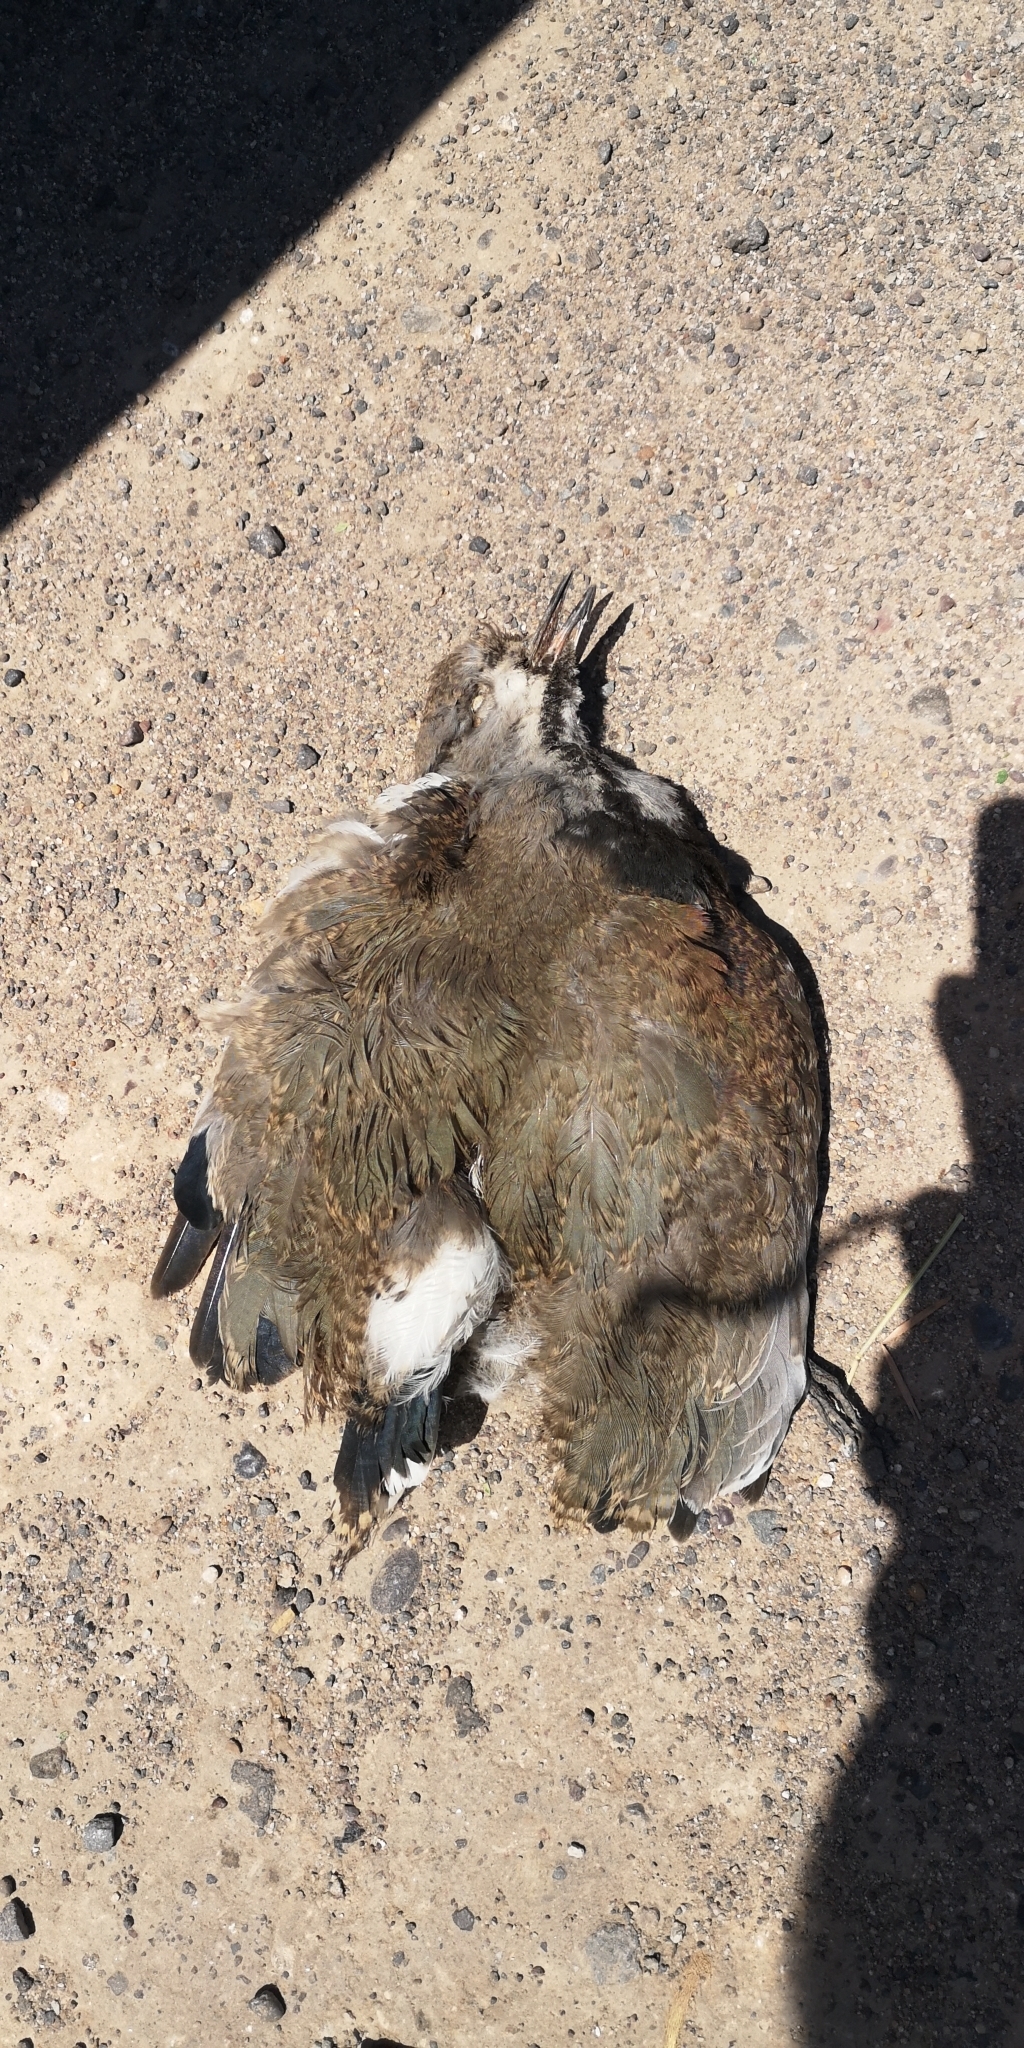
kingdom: Animalia
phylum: Chordata
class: Aves
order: Charadriiformes
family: Charadriidae
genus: Vanellus
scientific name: Vanellus chilensis
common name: Southern lapwing
